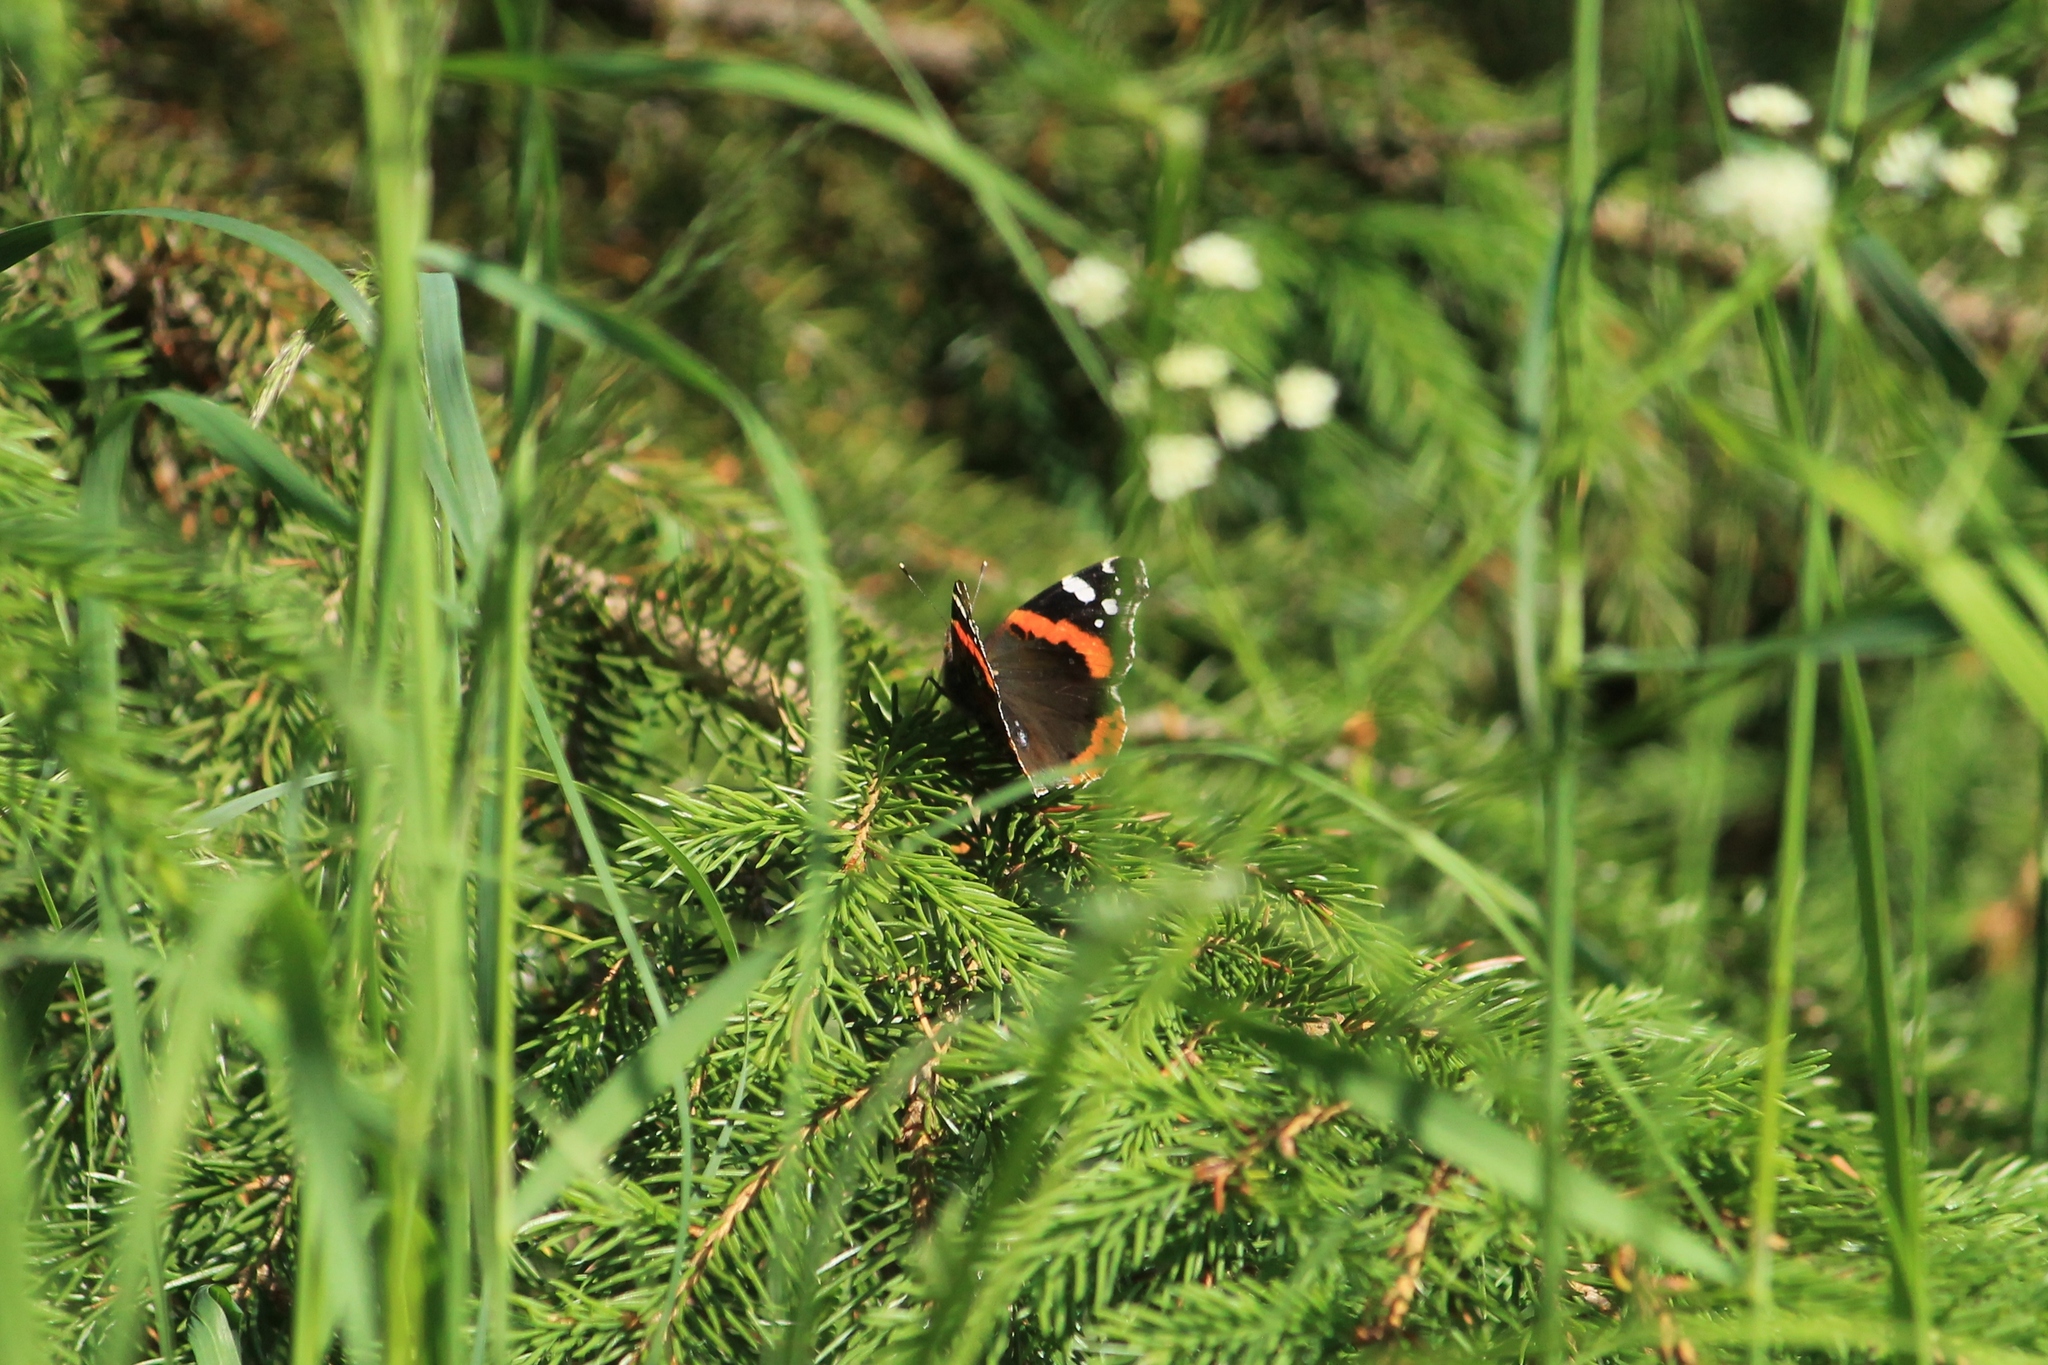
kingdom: Animalia
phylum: Arthropoda
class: Insecta
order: Lepidoptera
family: Nymphalidae
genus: Vanessa
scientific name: Vanessa atalanta
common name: Red admiral
